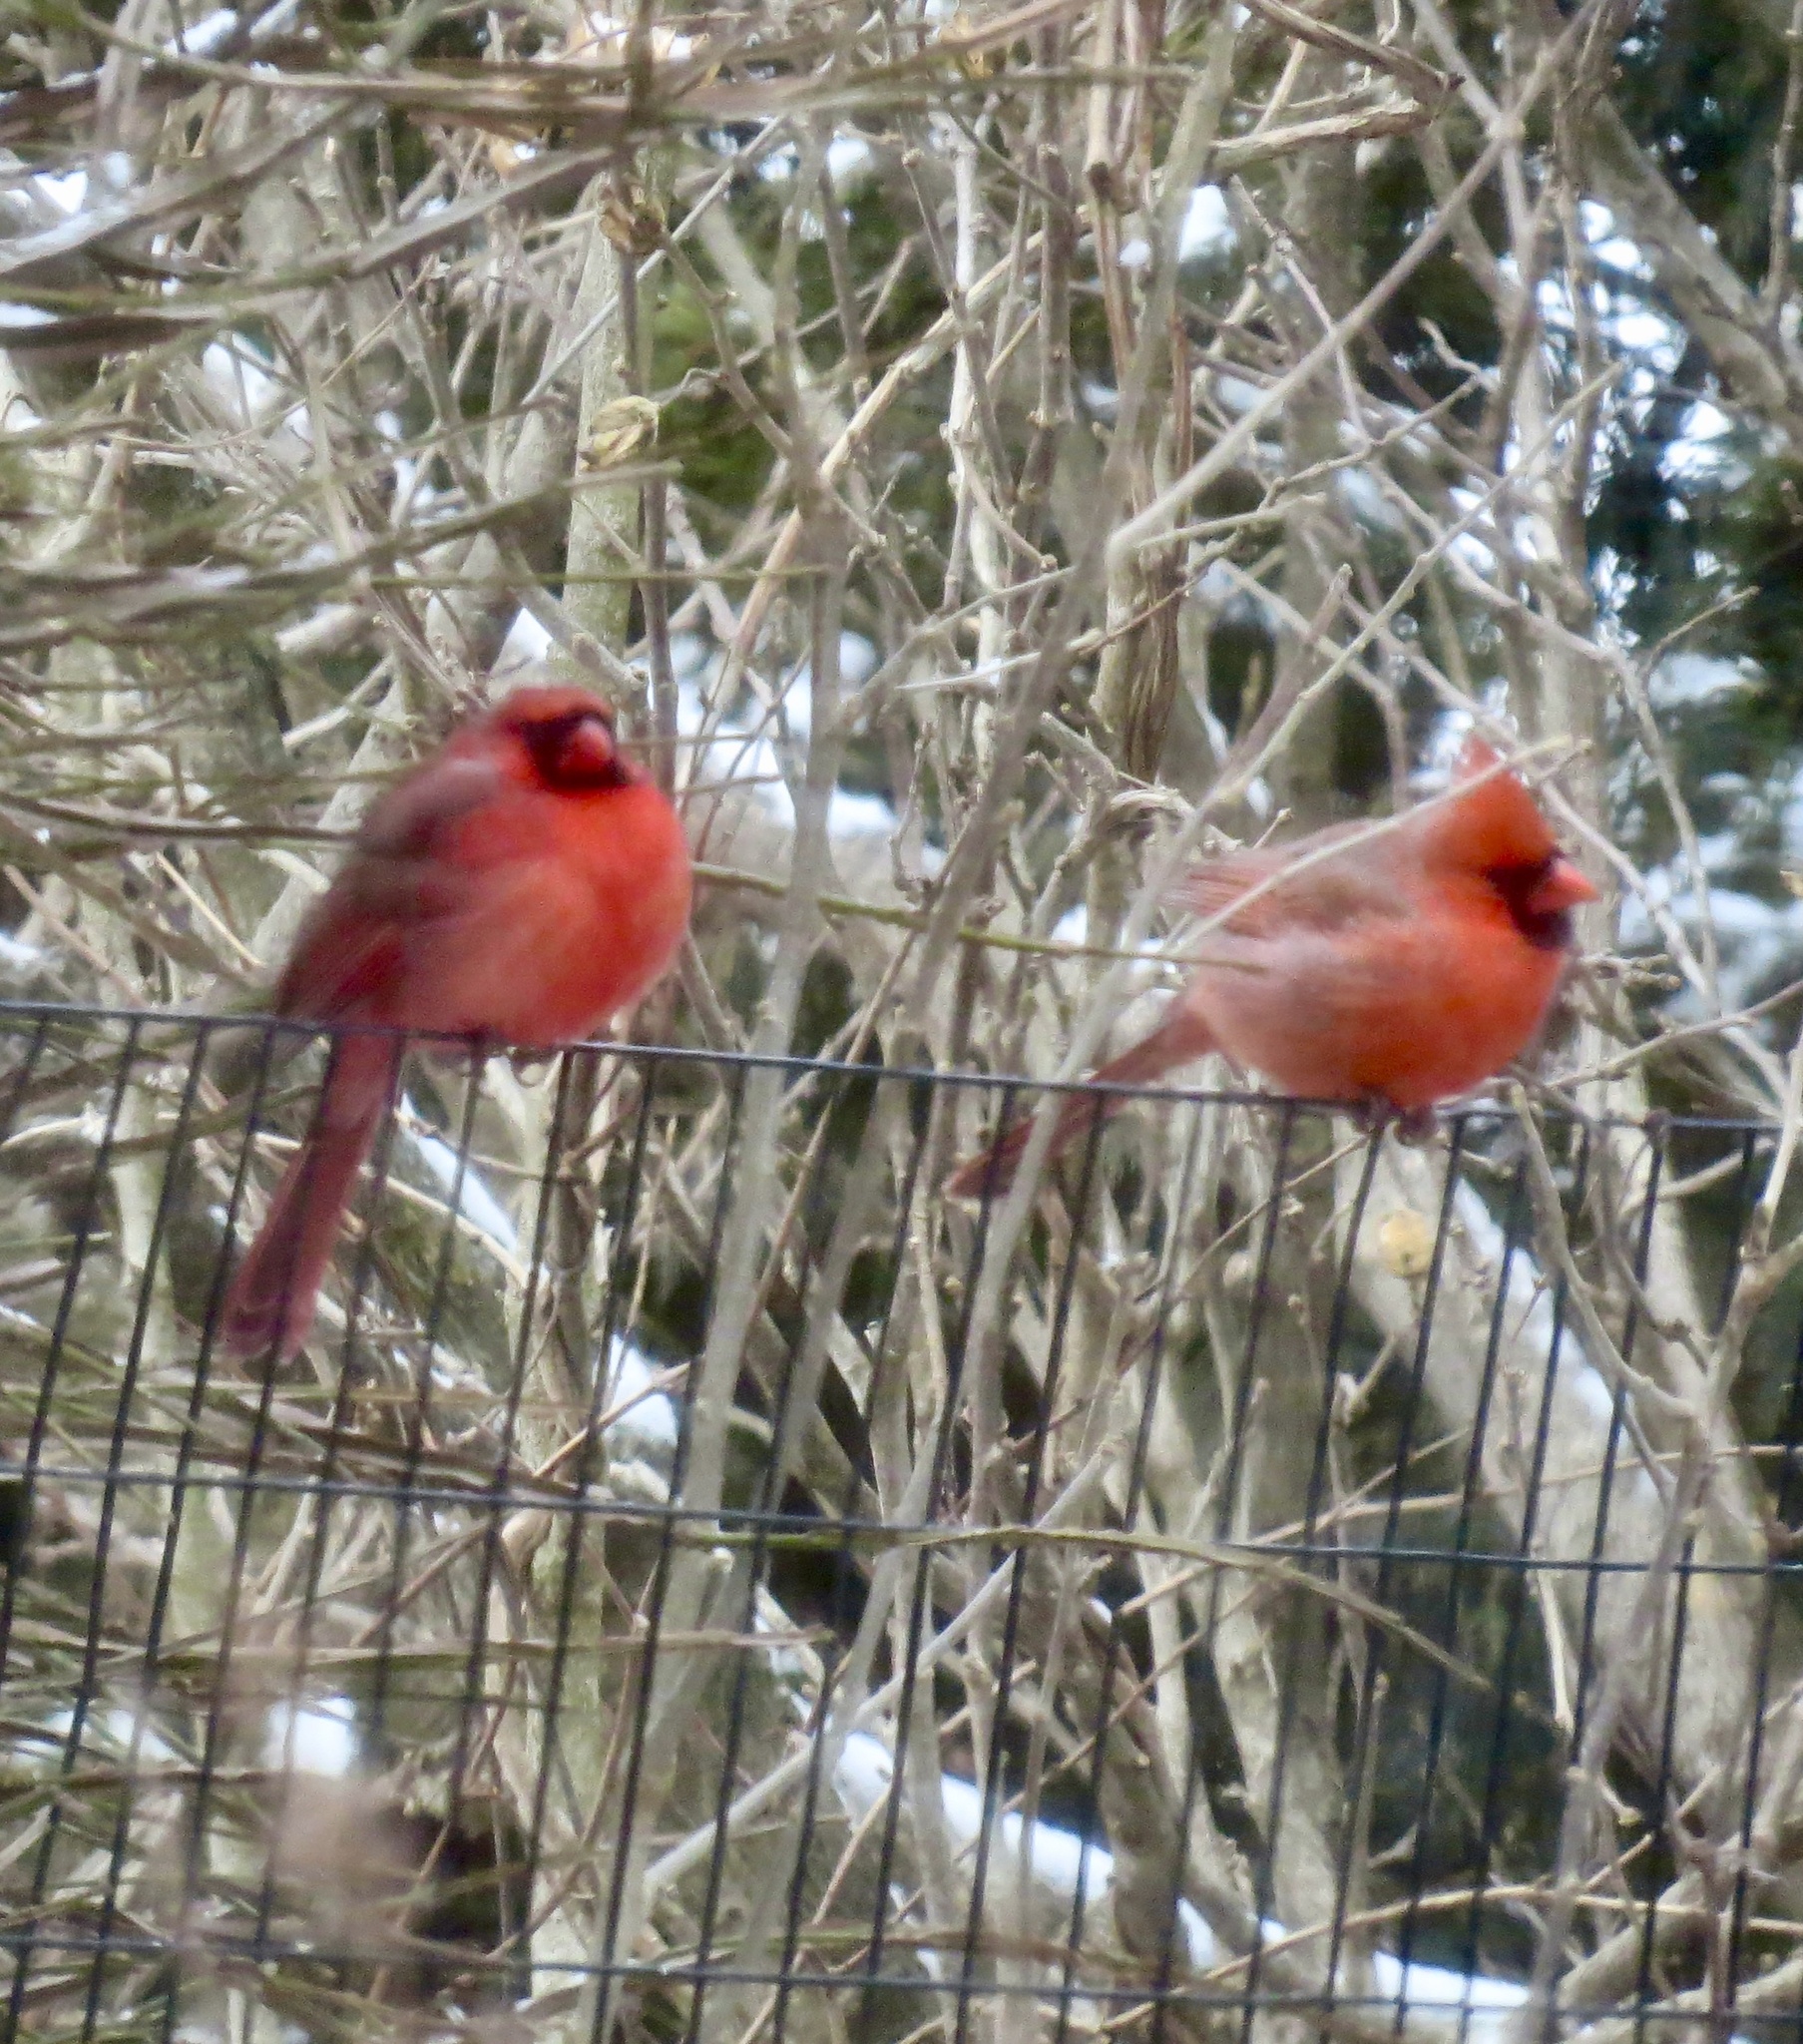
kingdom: Animalia
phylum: Chordata
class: Aves
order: Passeriformes
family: Cardinalidae
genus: Cardinalis
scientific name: Cardinalis cardinalis
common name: Northern cardinal
